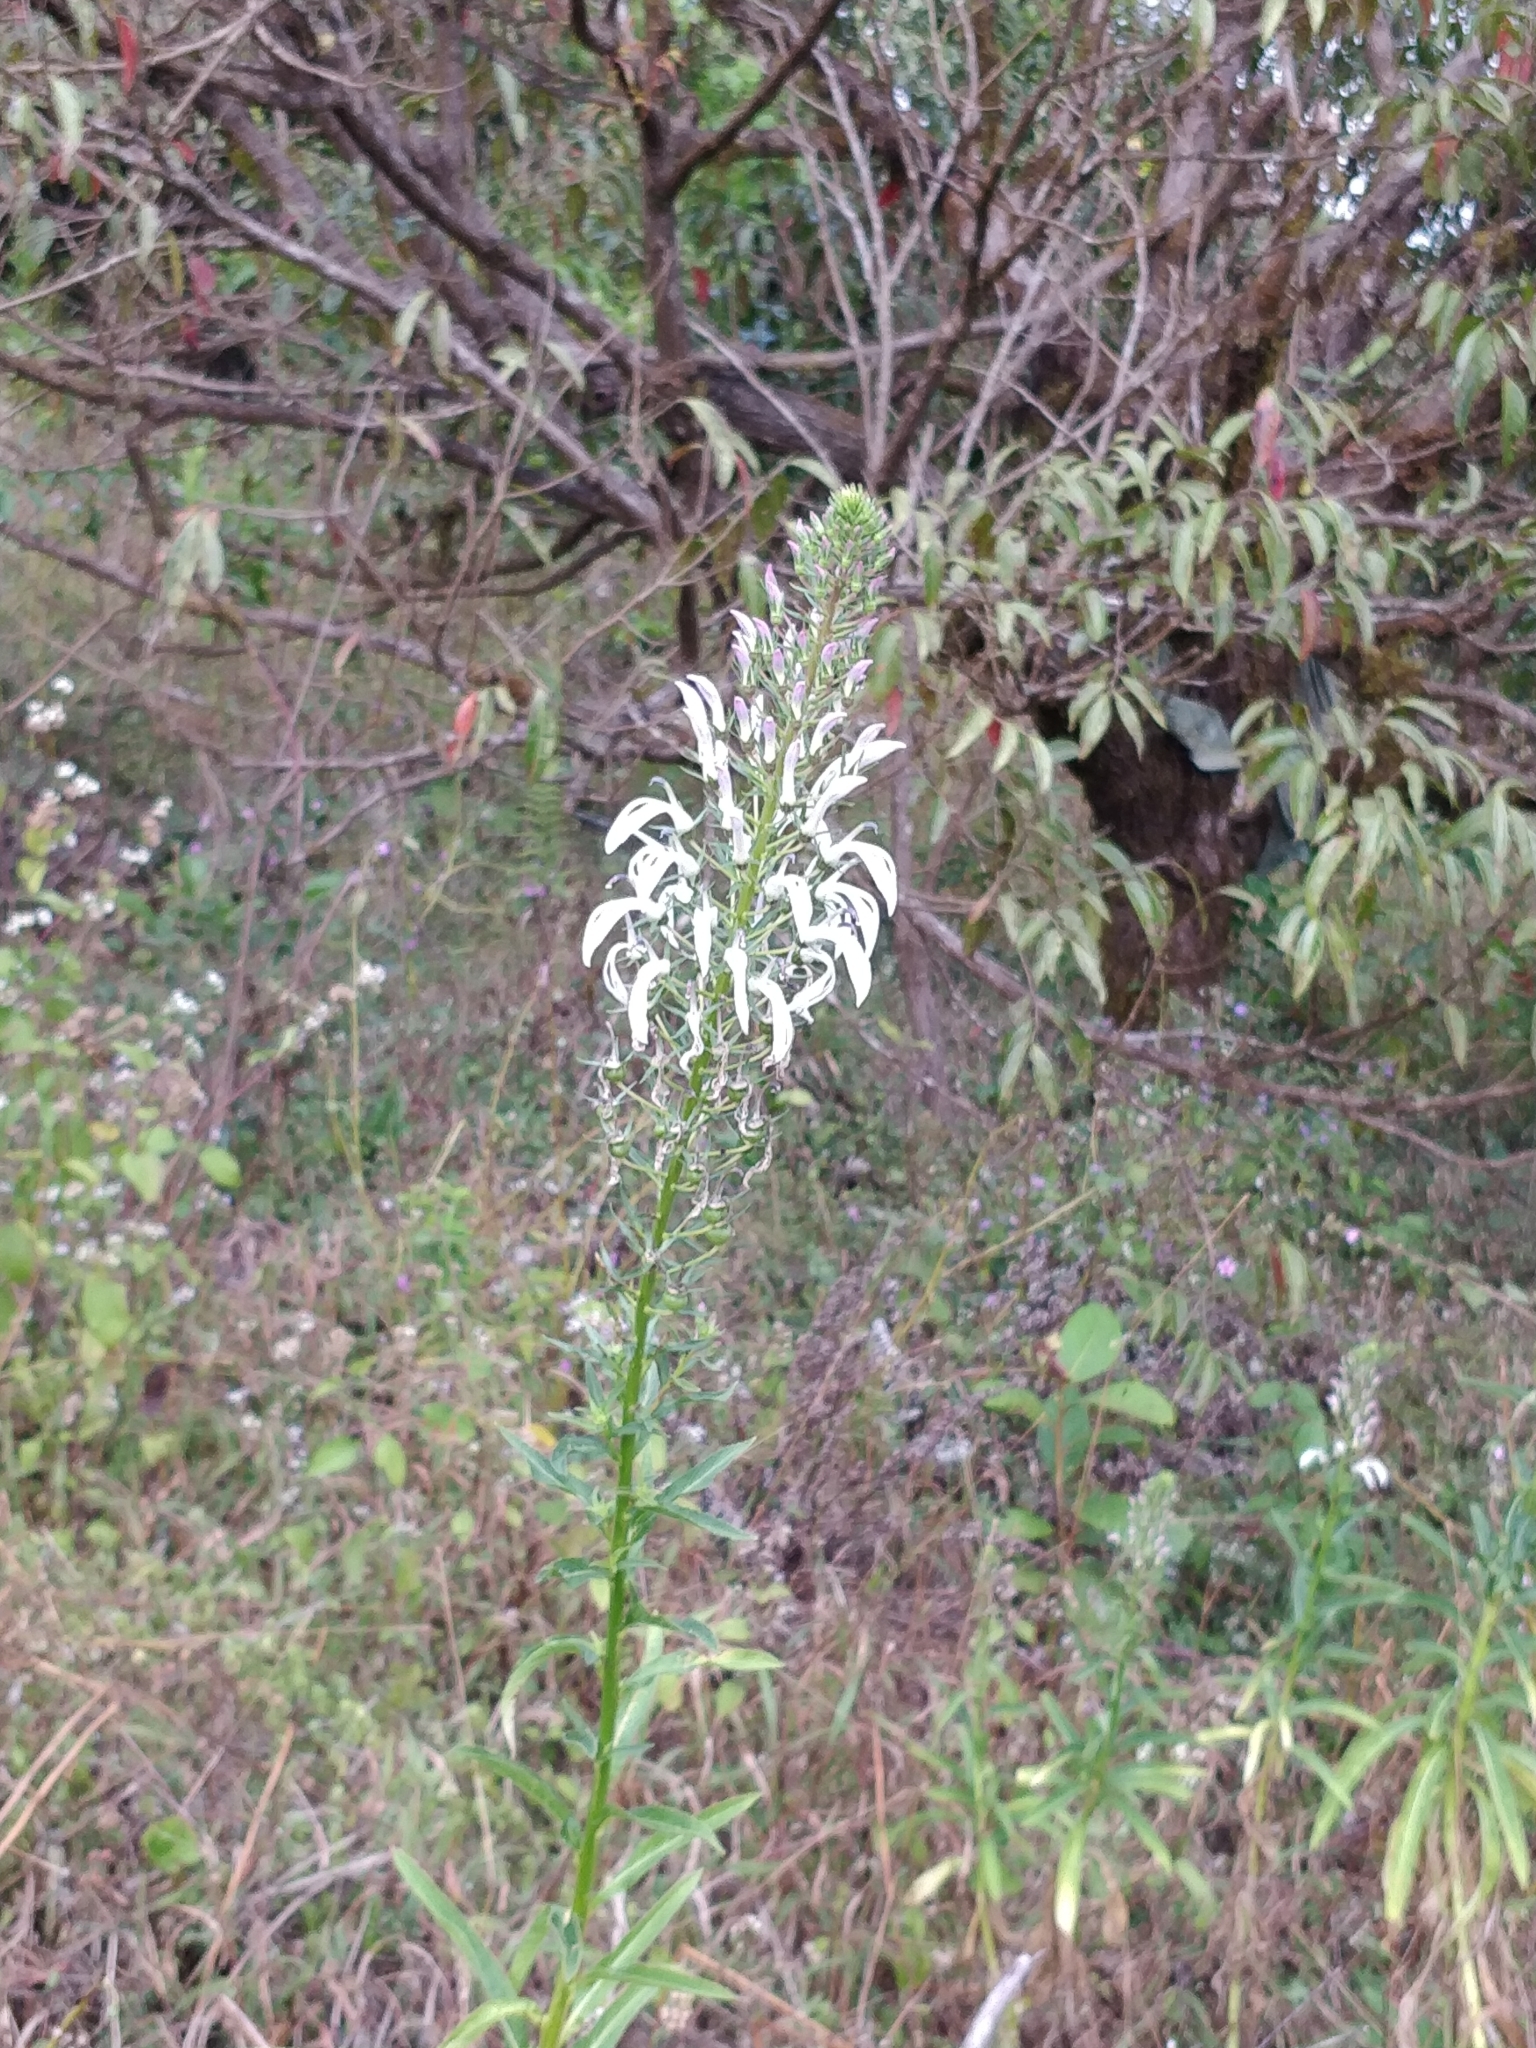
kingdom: Plantae
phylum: Tracheophyta
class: Magnoliopsida
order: Asterales
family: Campanulaceae
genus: Lobelia
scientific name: Lobelia nicotianifolia
